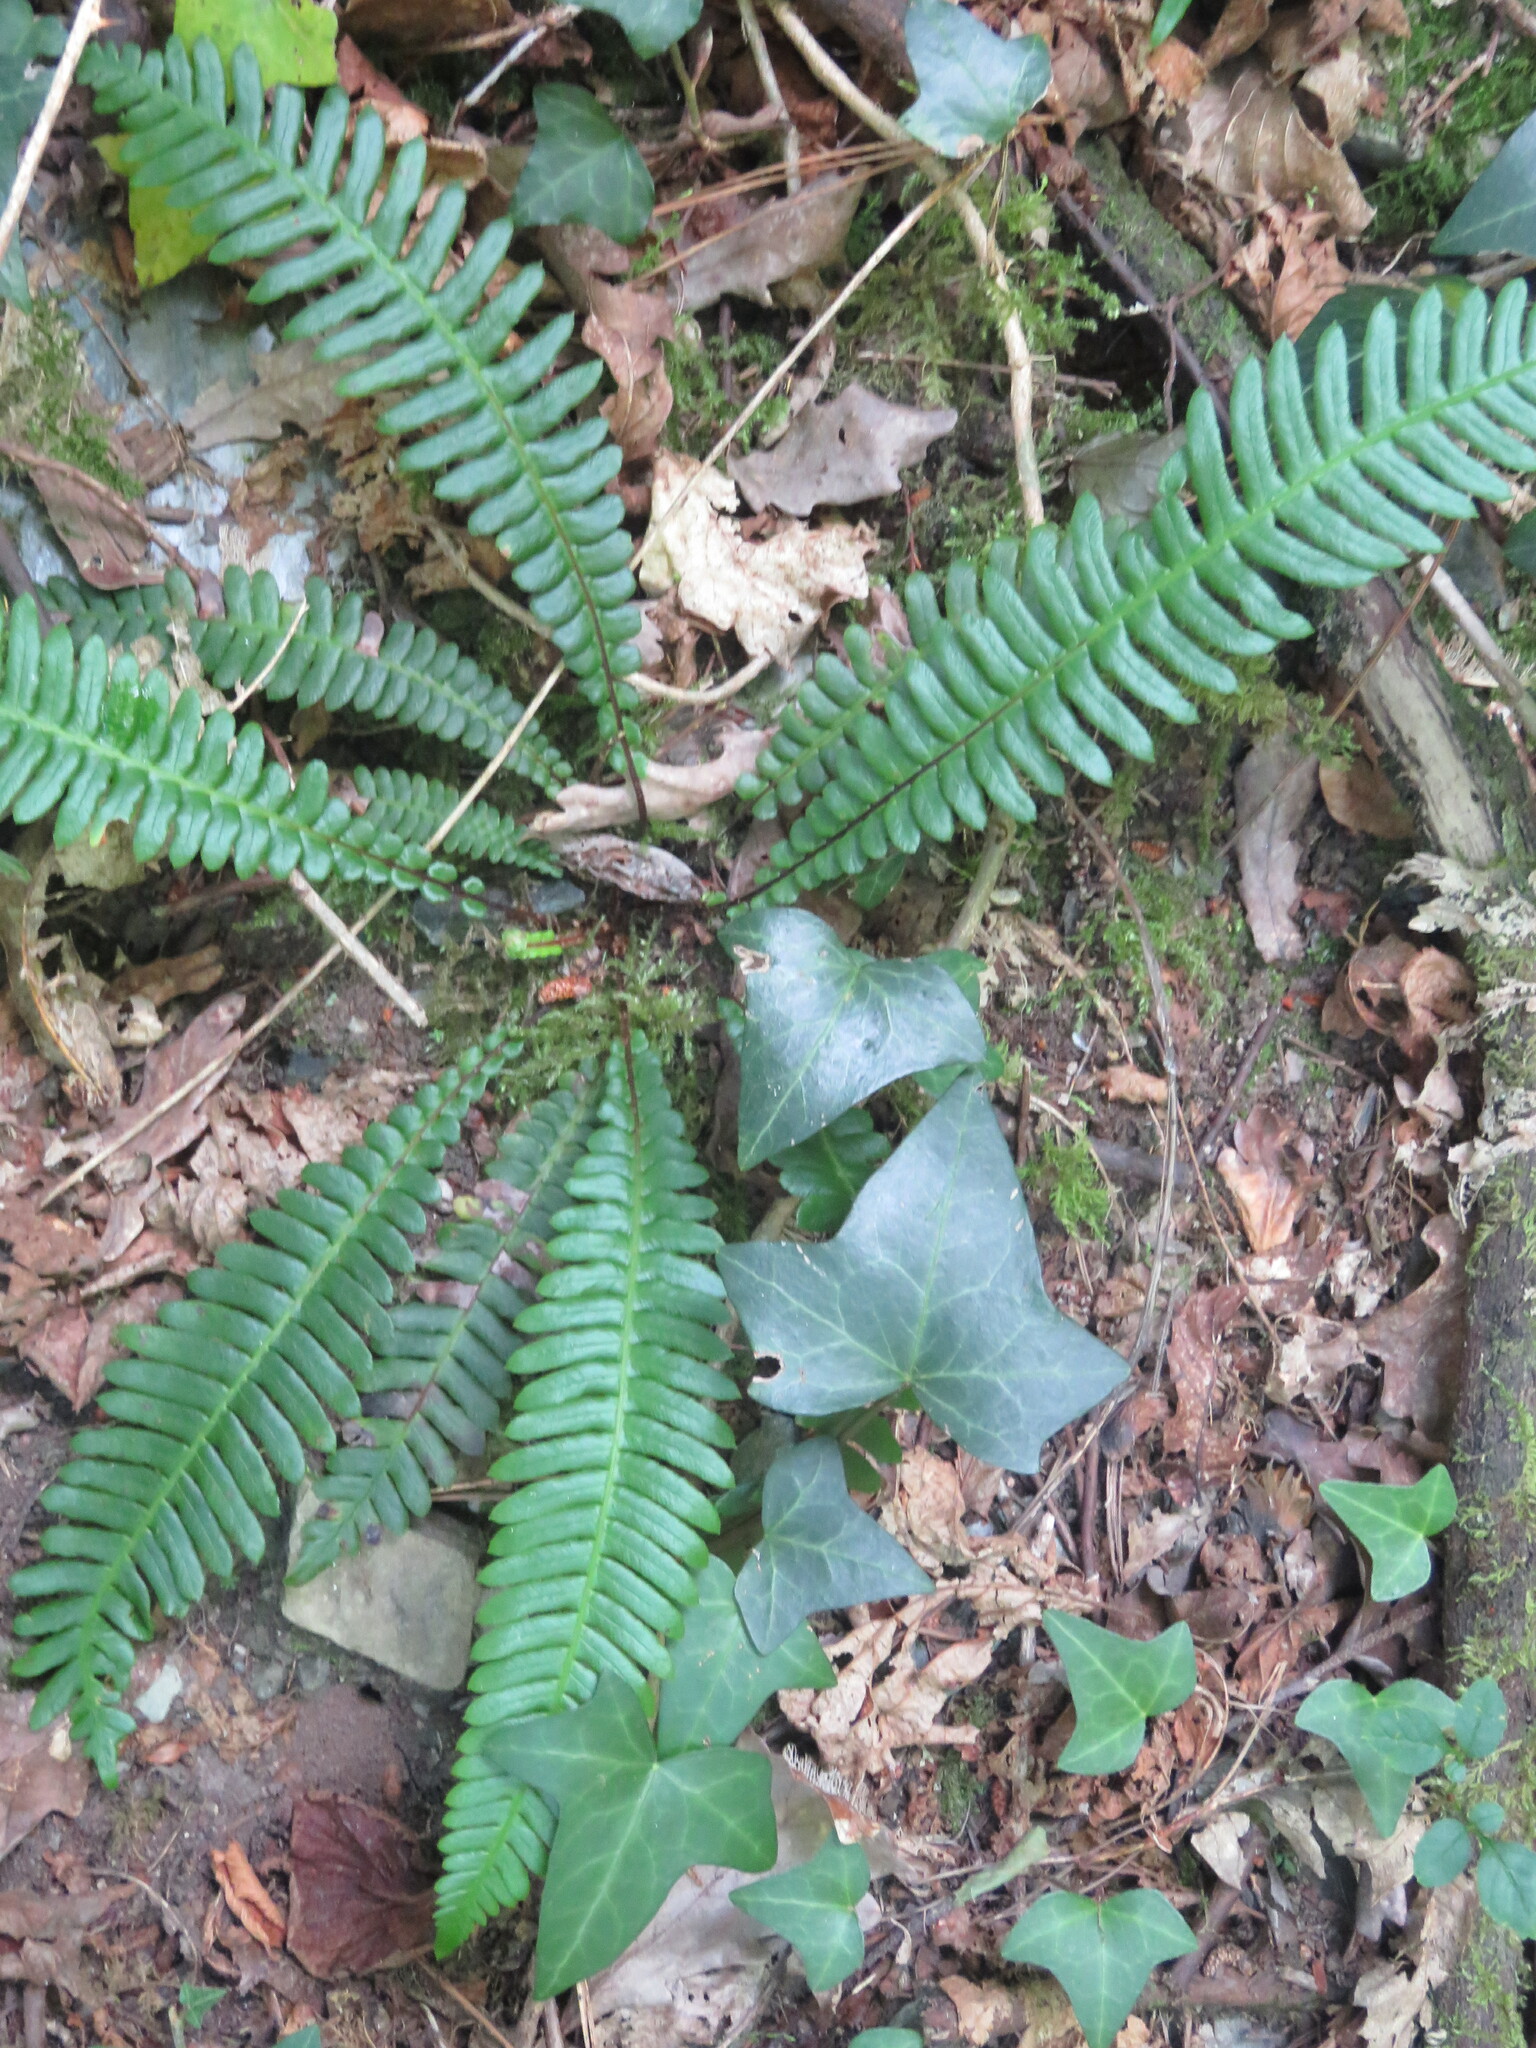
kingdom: Plantae
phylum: Tracheophyta
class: Polypodiopsida
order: Polypodiales
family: Blechnaceae
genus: Struthiopteris
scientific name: Struthiopteris spicant
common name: Deer fern
